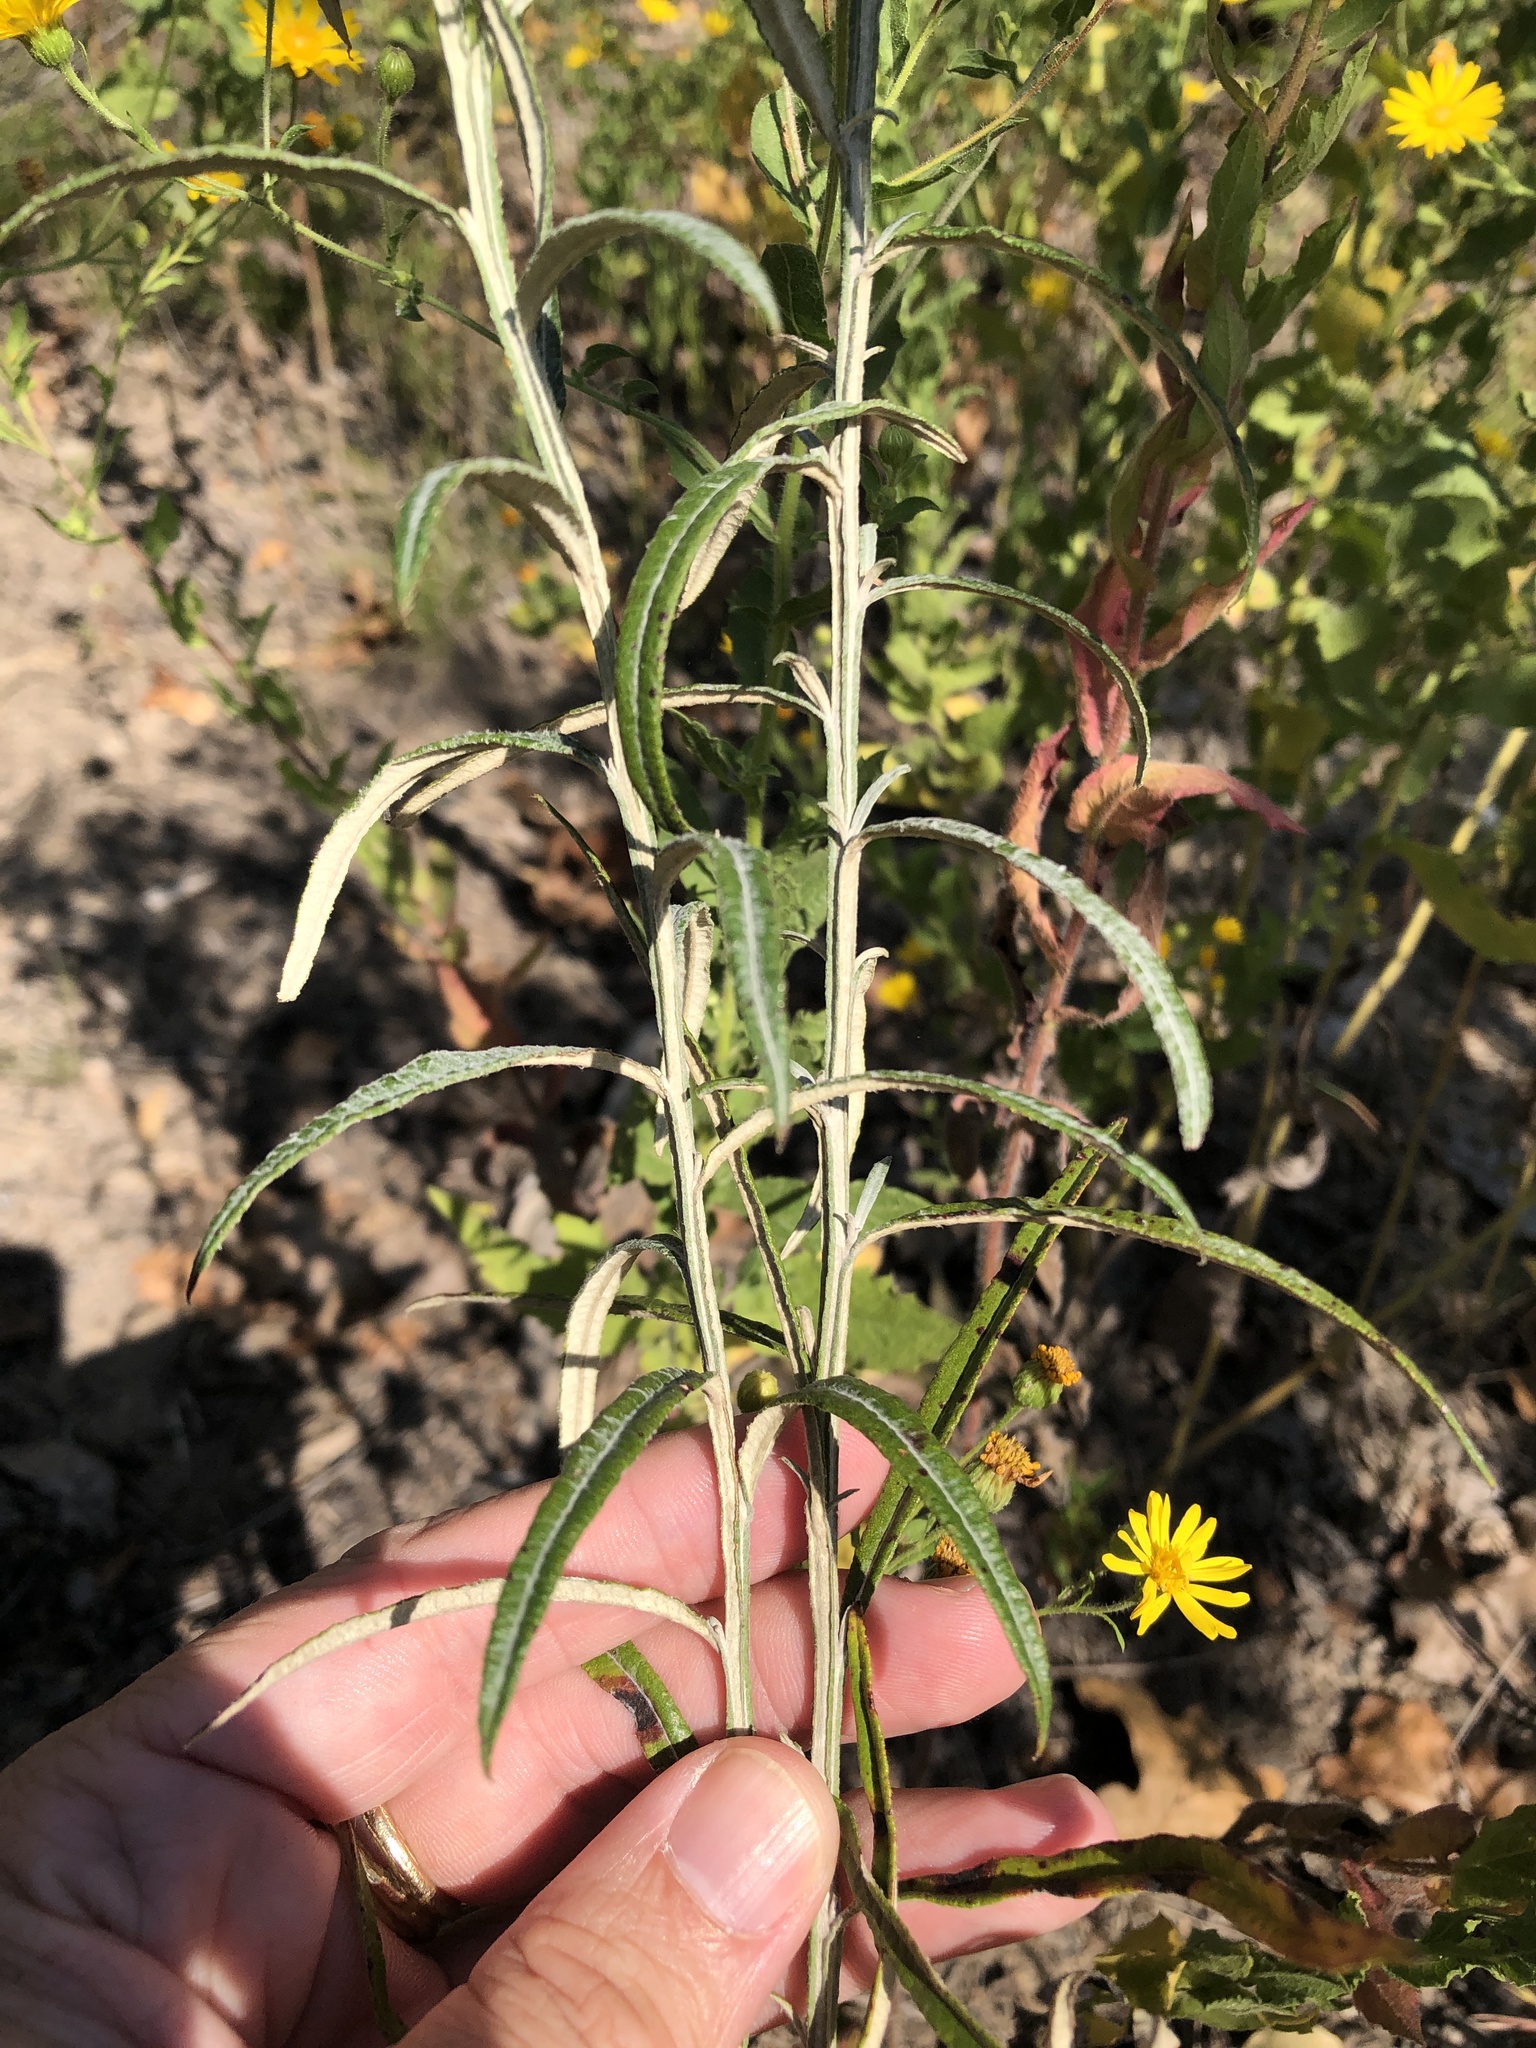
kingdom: Plantae
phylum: Tracheophyta
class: Magnoliopsida
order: Asterales
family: Asteraceae
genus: Pterocaulon
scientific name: Pterocaulon virgatum
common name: Wand blackroot
